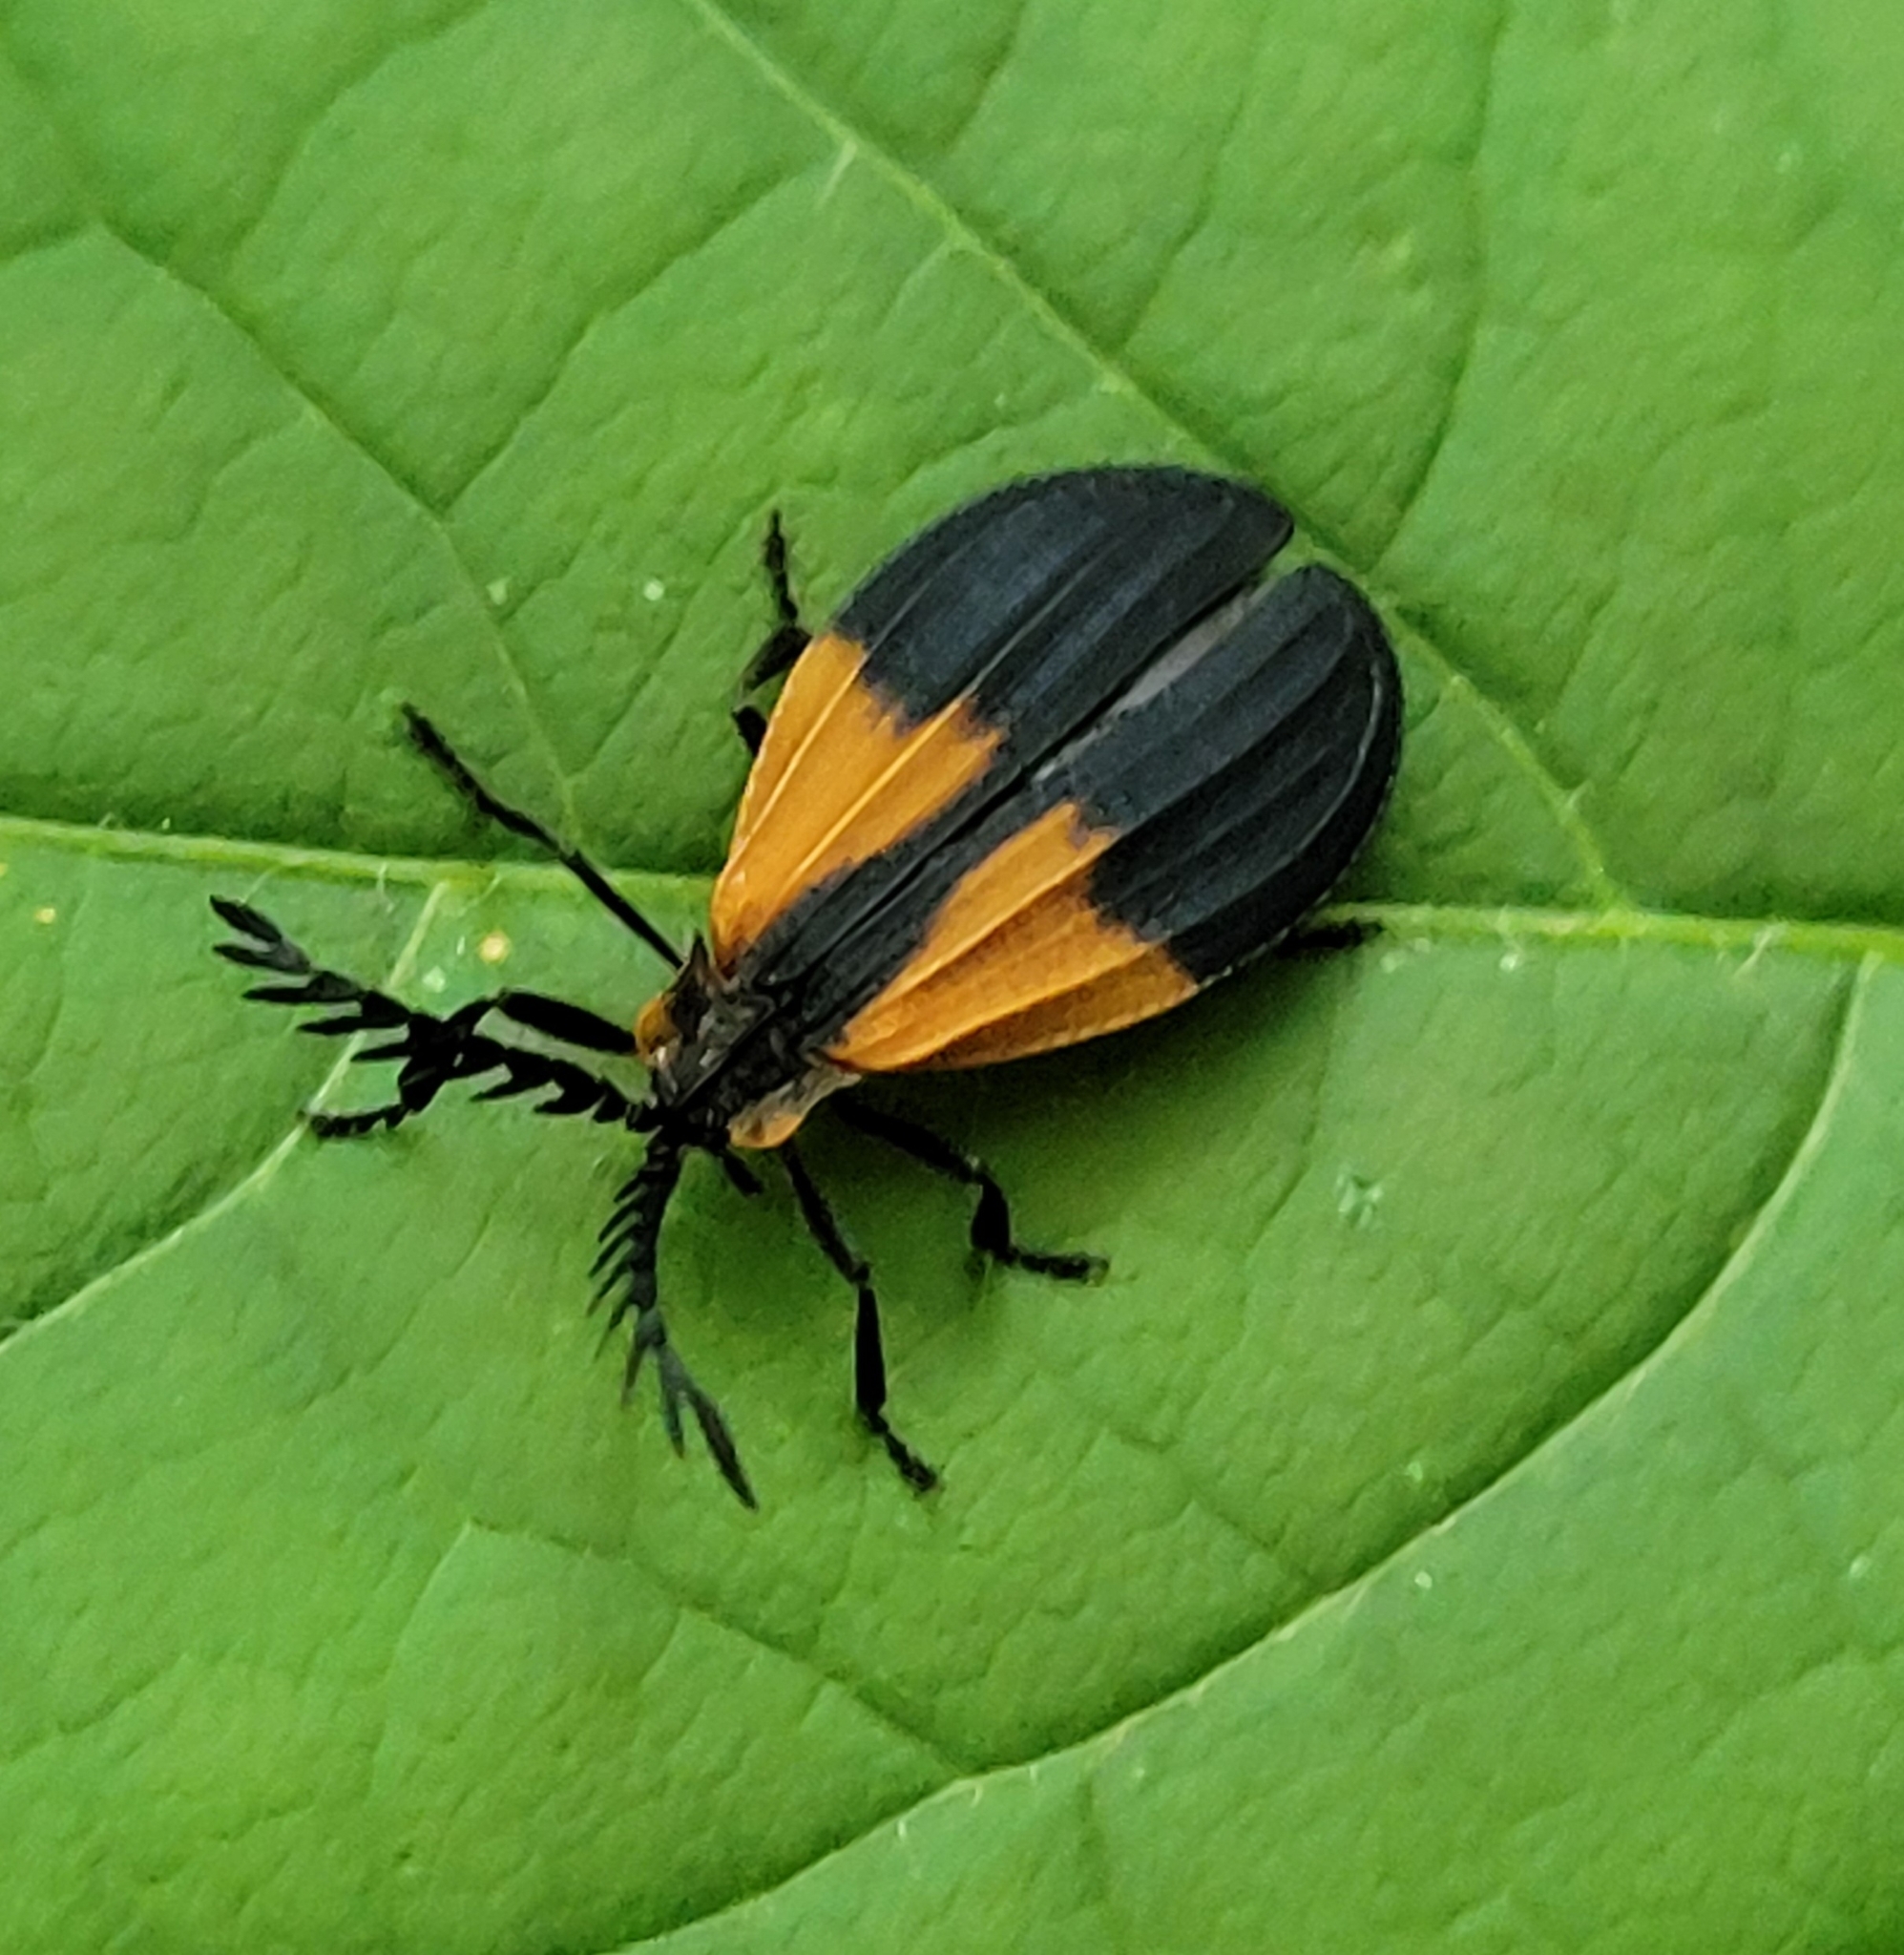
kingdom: Animalia
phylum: Arthropoda
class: Insecta
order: Coleoptera
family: Lycidae
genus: Caenia
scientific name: Caenia dimidiata
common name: Terminal net-winged beetle
